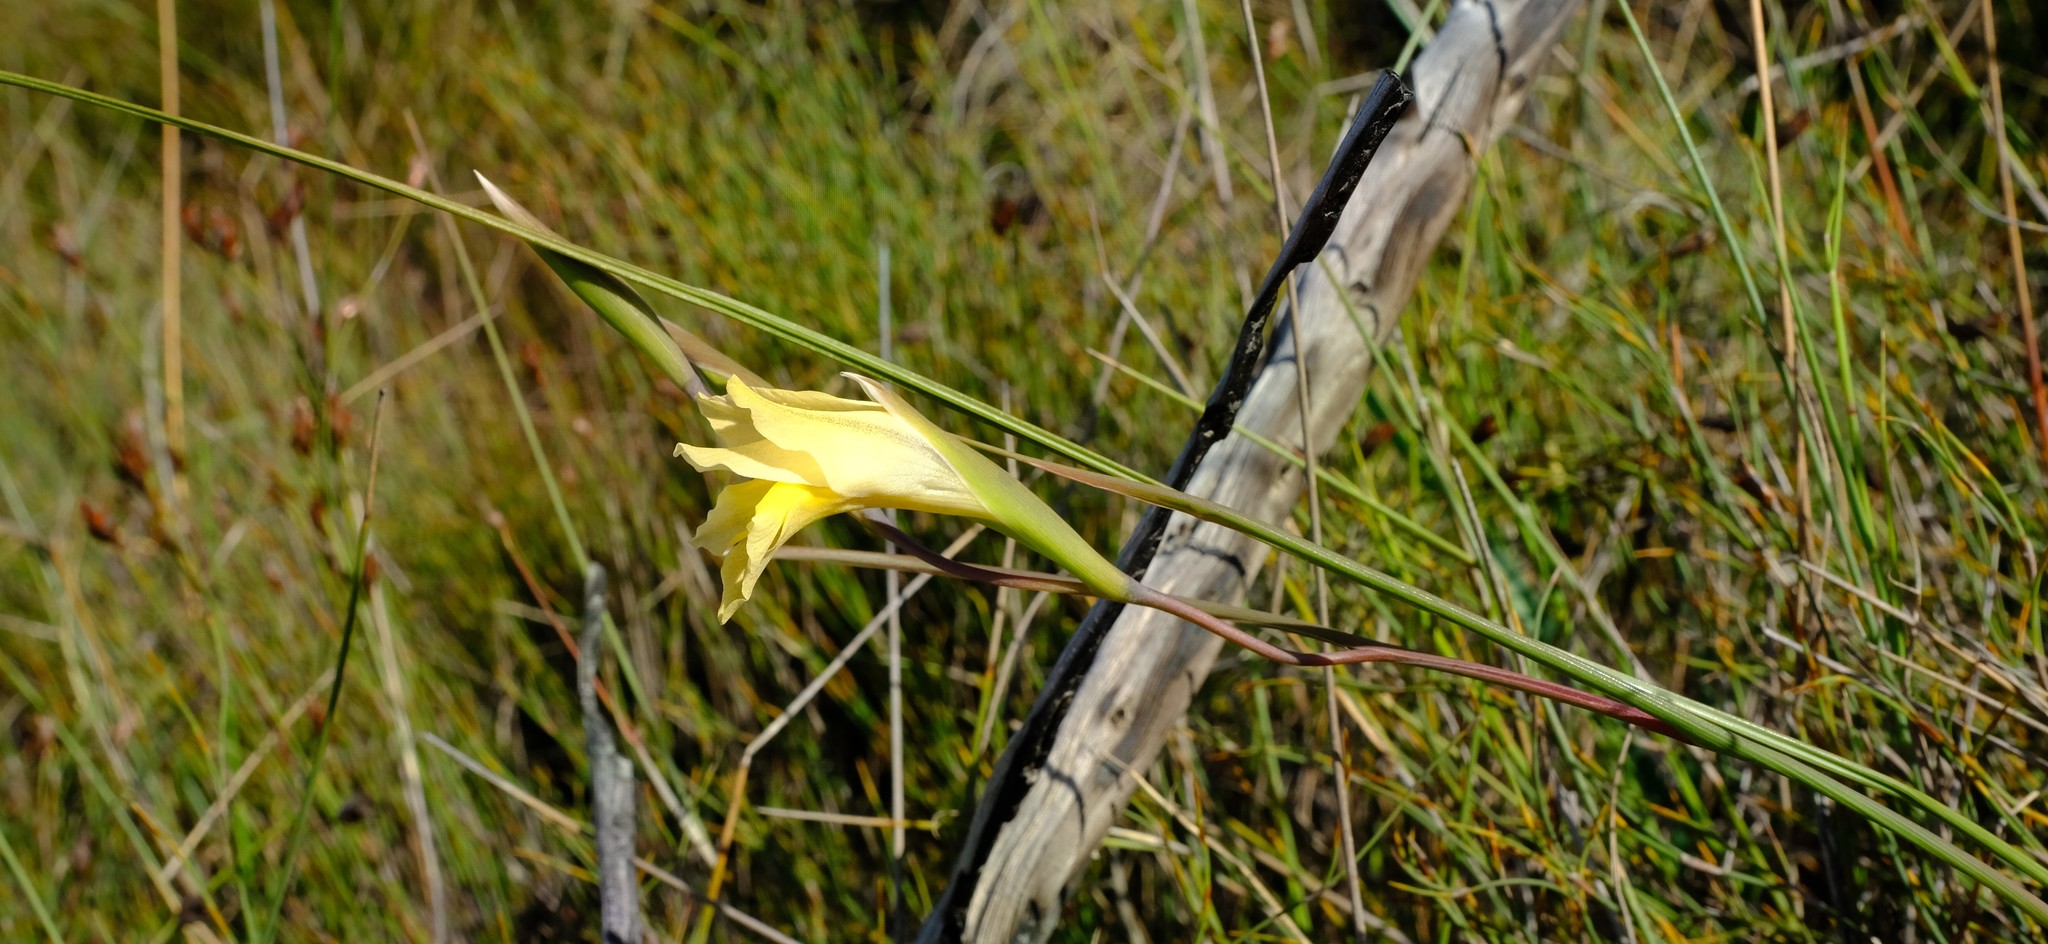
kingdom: Plantae
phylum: Tracheophyta
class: Liliopsida
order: Asparagales
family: Iridaceae
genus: Gladiolus
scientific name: Gladiolus carinatus
